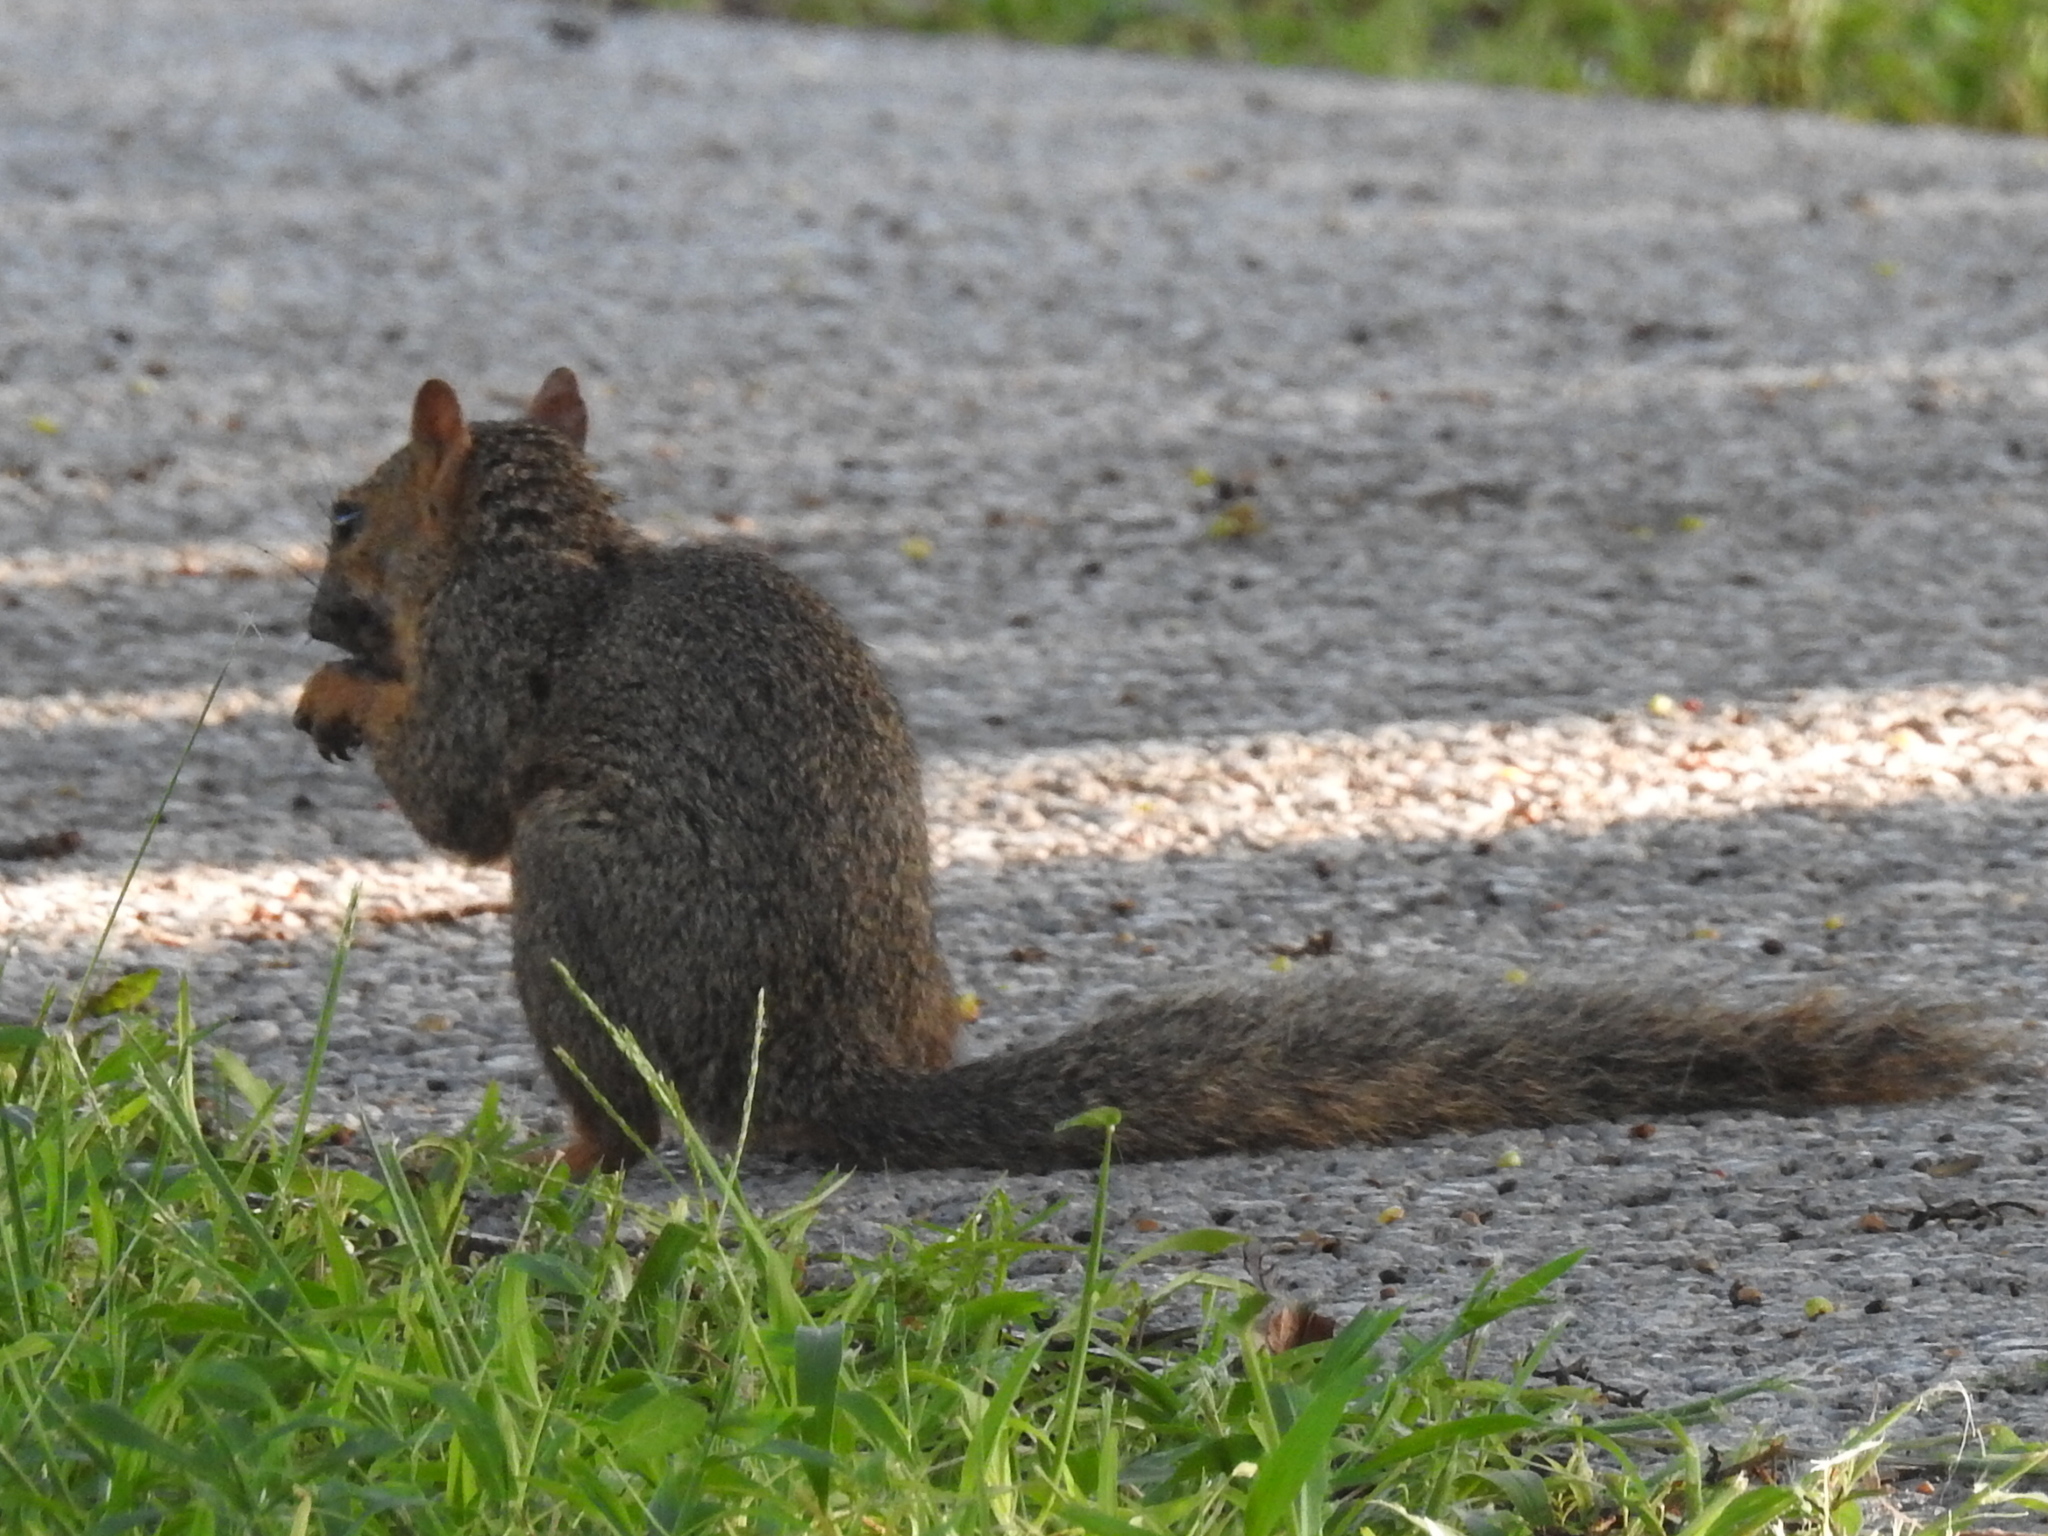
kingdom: Animalia
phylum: Chordata
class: Mammalia
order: Rodentia
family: Sciuridae
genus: Sciurus
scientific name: Sciurus niger
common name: Fox squirrel
